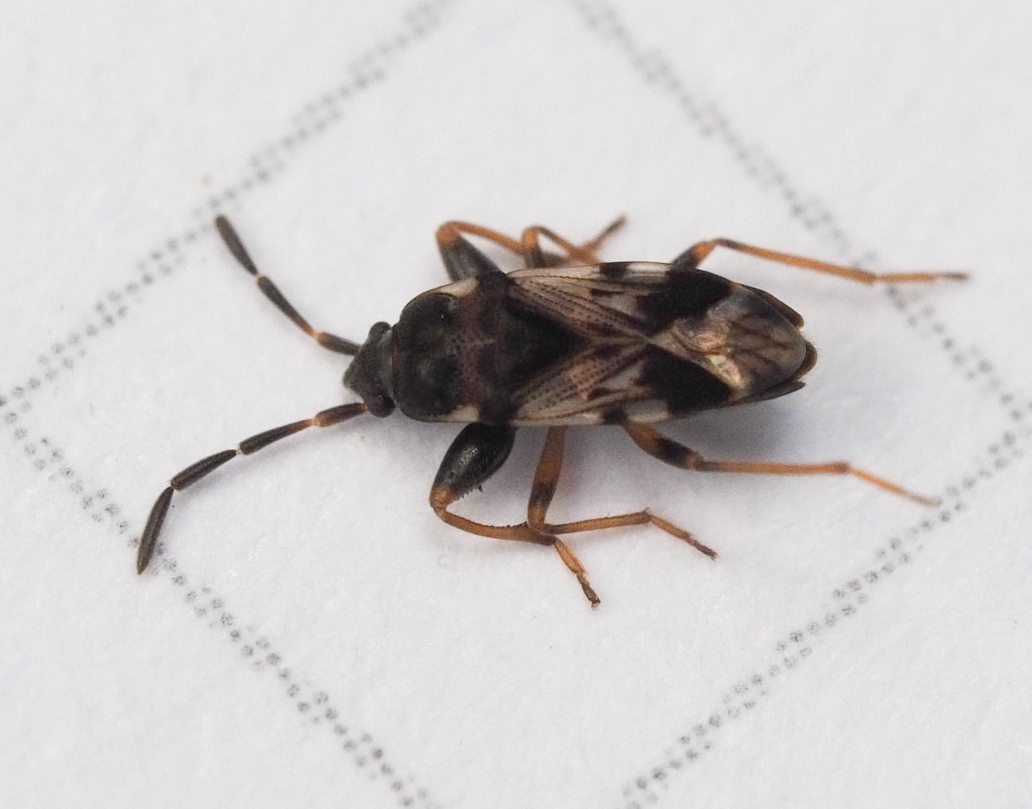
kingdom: Animalia
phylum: Arthropoda
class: Insecta
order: Hemiptera
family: Rhyparochromidae
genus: Scolopostethus
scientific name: Scolopostethus decoratus
